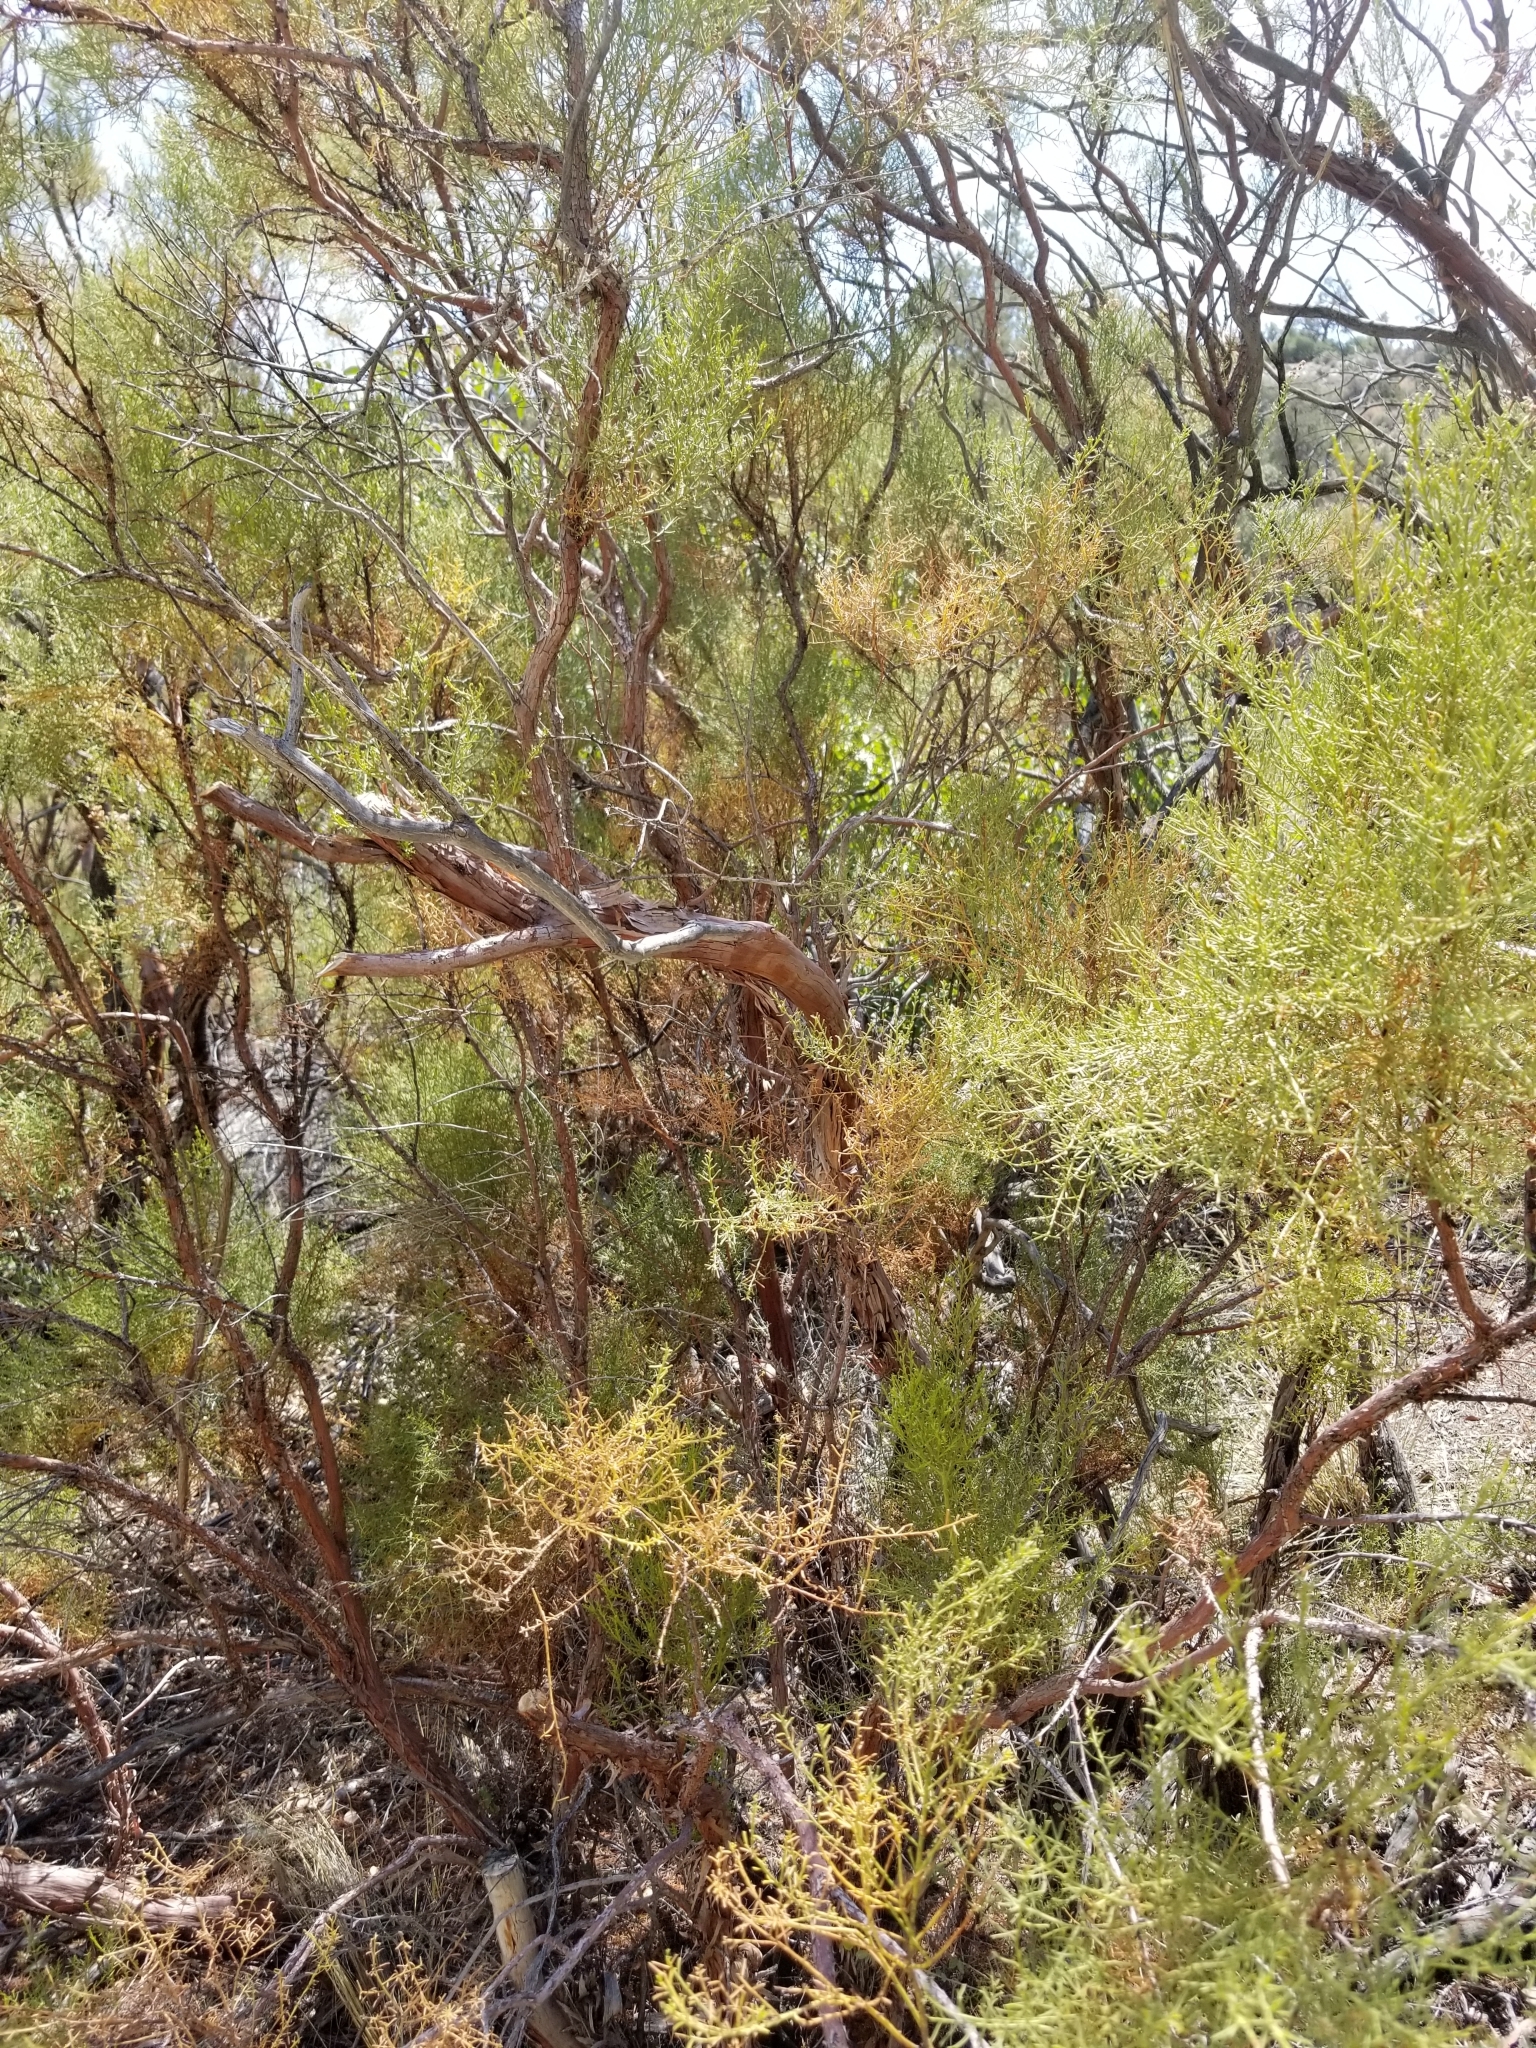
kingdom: Plantae
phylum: Tracheophyta
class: Magnoliopsida
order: Rosales
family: Rosaceae
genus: Adenostoma
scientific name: Adenostoma sparsifolium
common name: Red shank
